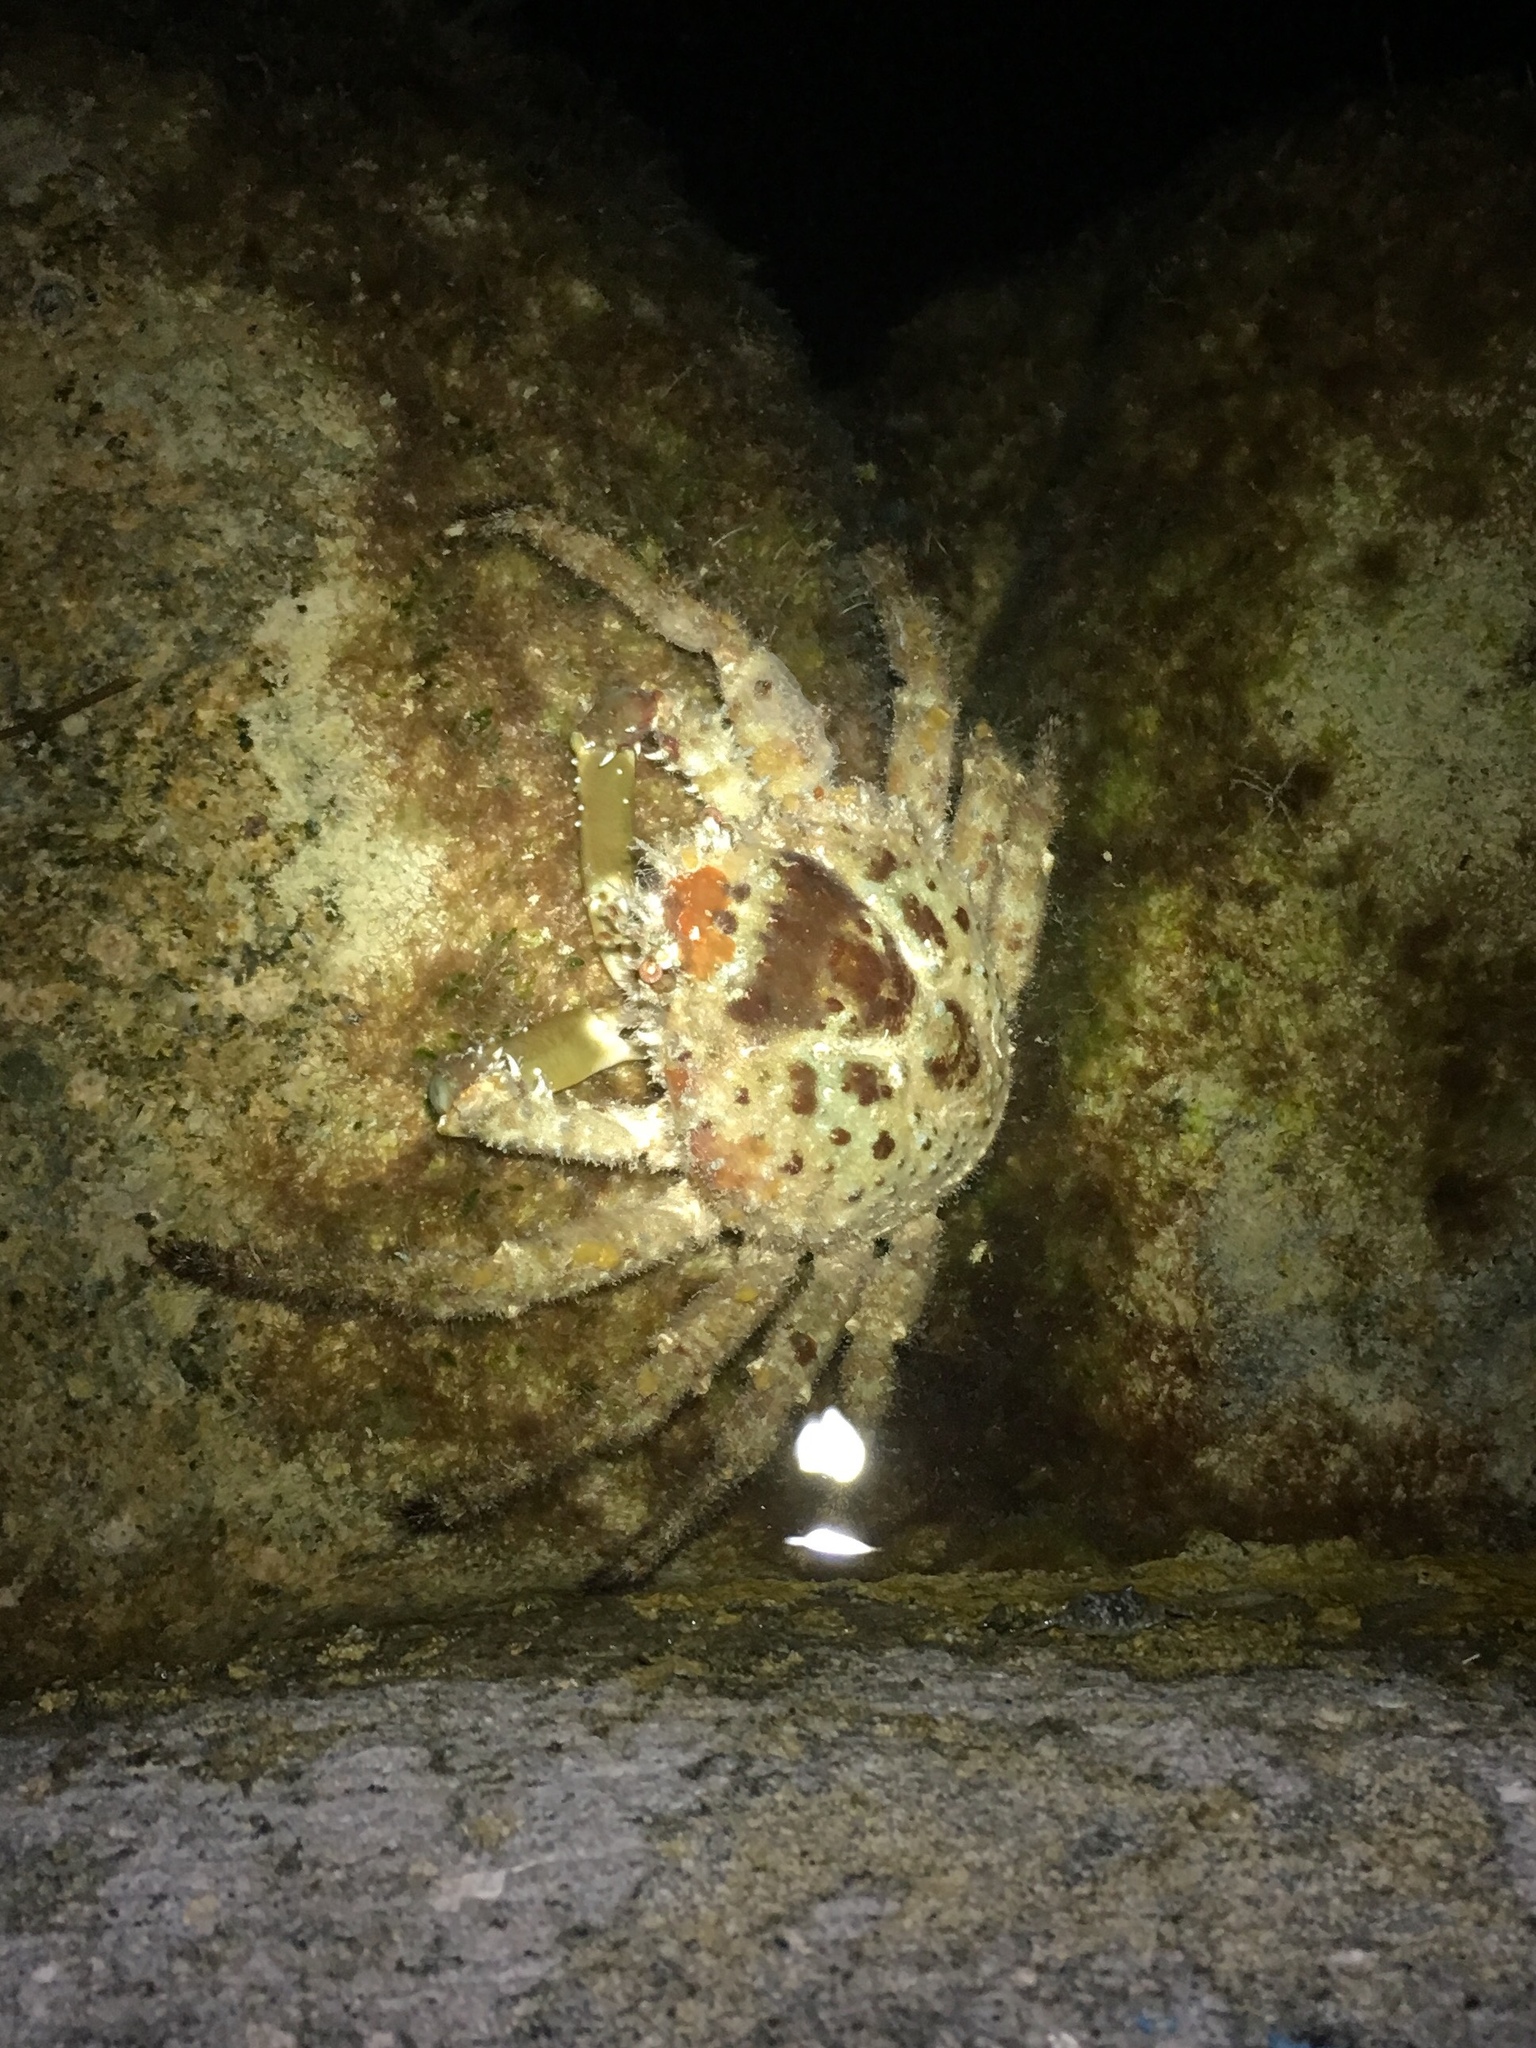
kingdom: Animalia
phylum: Arthropoda
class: Malacostraca
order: Decapoda
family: Epialtidae
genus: Libinia
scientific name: Libinia emarginata
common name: Common spider crab
